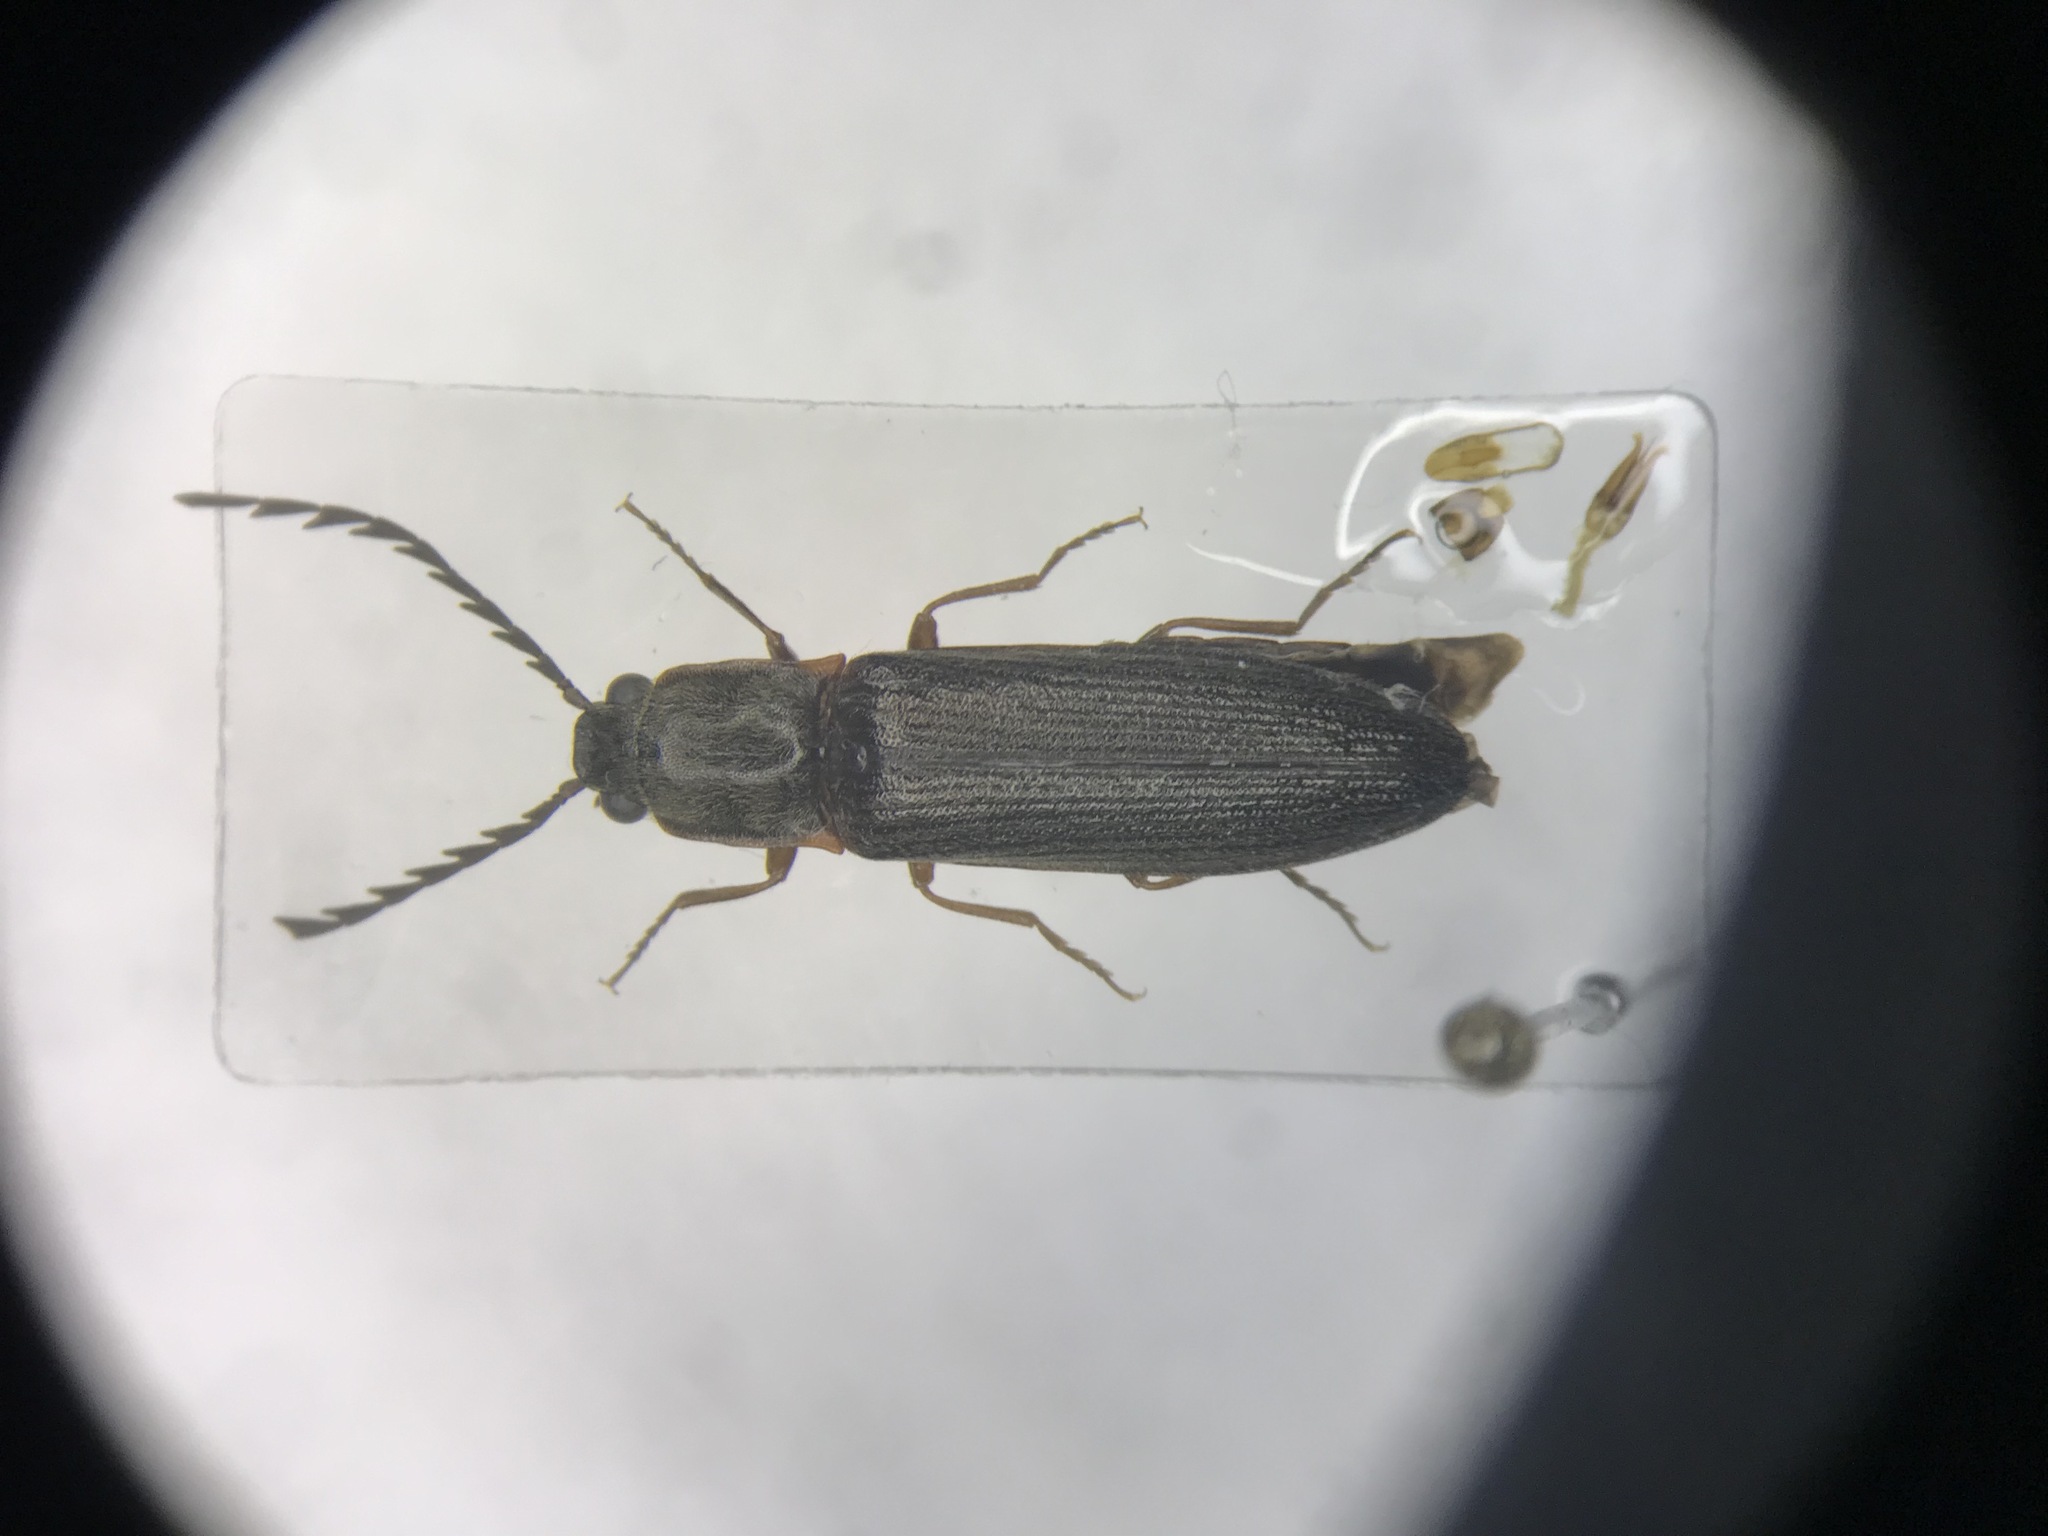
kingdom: Animalia
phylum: Arthropoda
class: Insecta
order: Coleoptera
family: Elateridae
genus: Athous
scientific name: Athous productus
